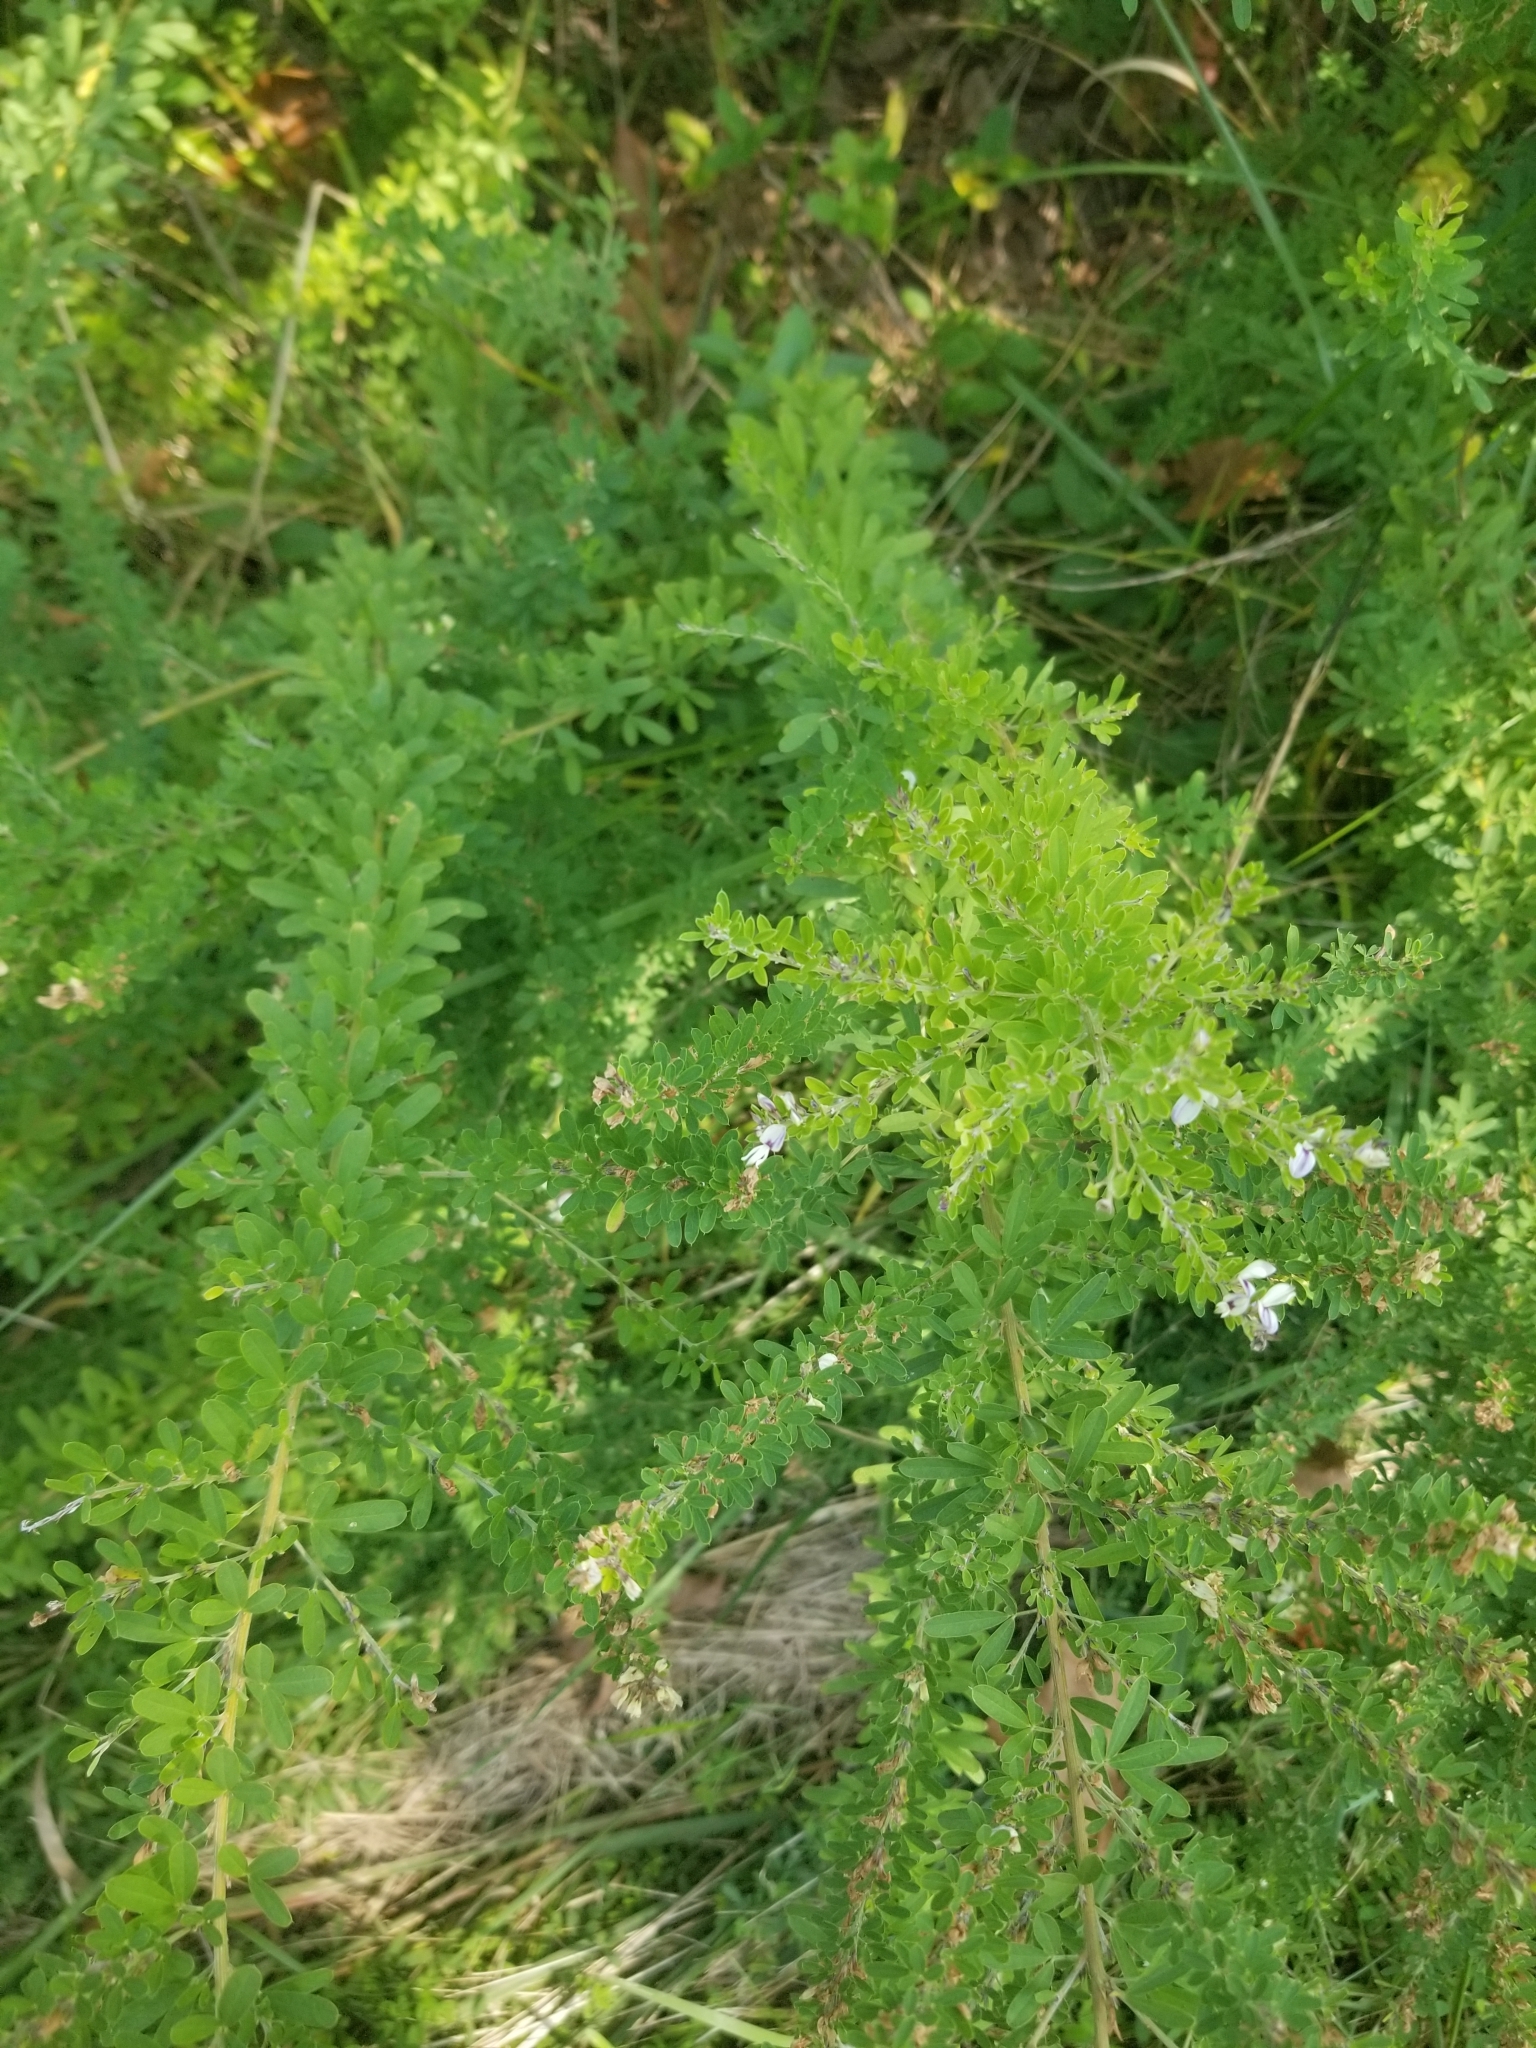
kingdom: Plantae
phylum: Tracheophyta
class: Magnoliopsida
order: Fabales
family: Fabaceae
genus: Lespedeza
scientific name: Lespedeza cuneata
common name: Chinese bush-clover
